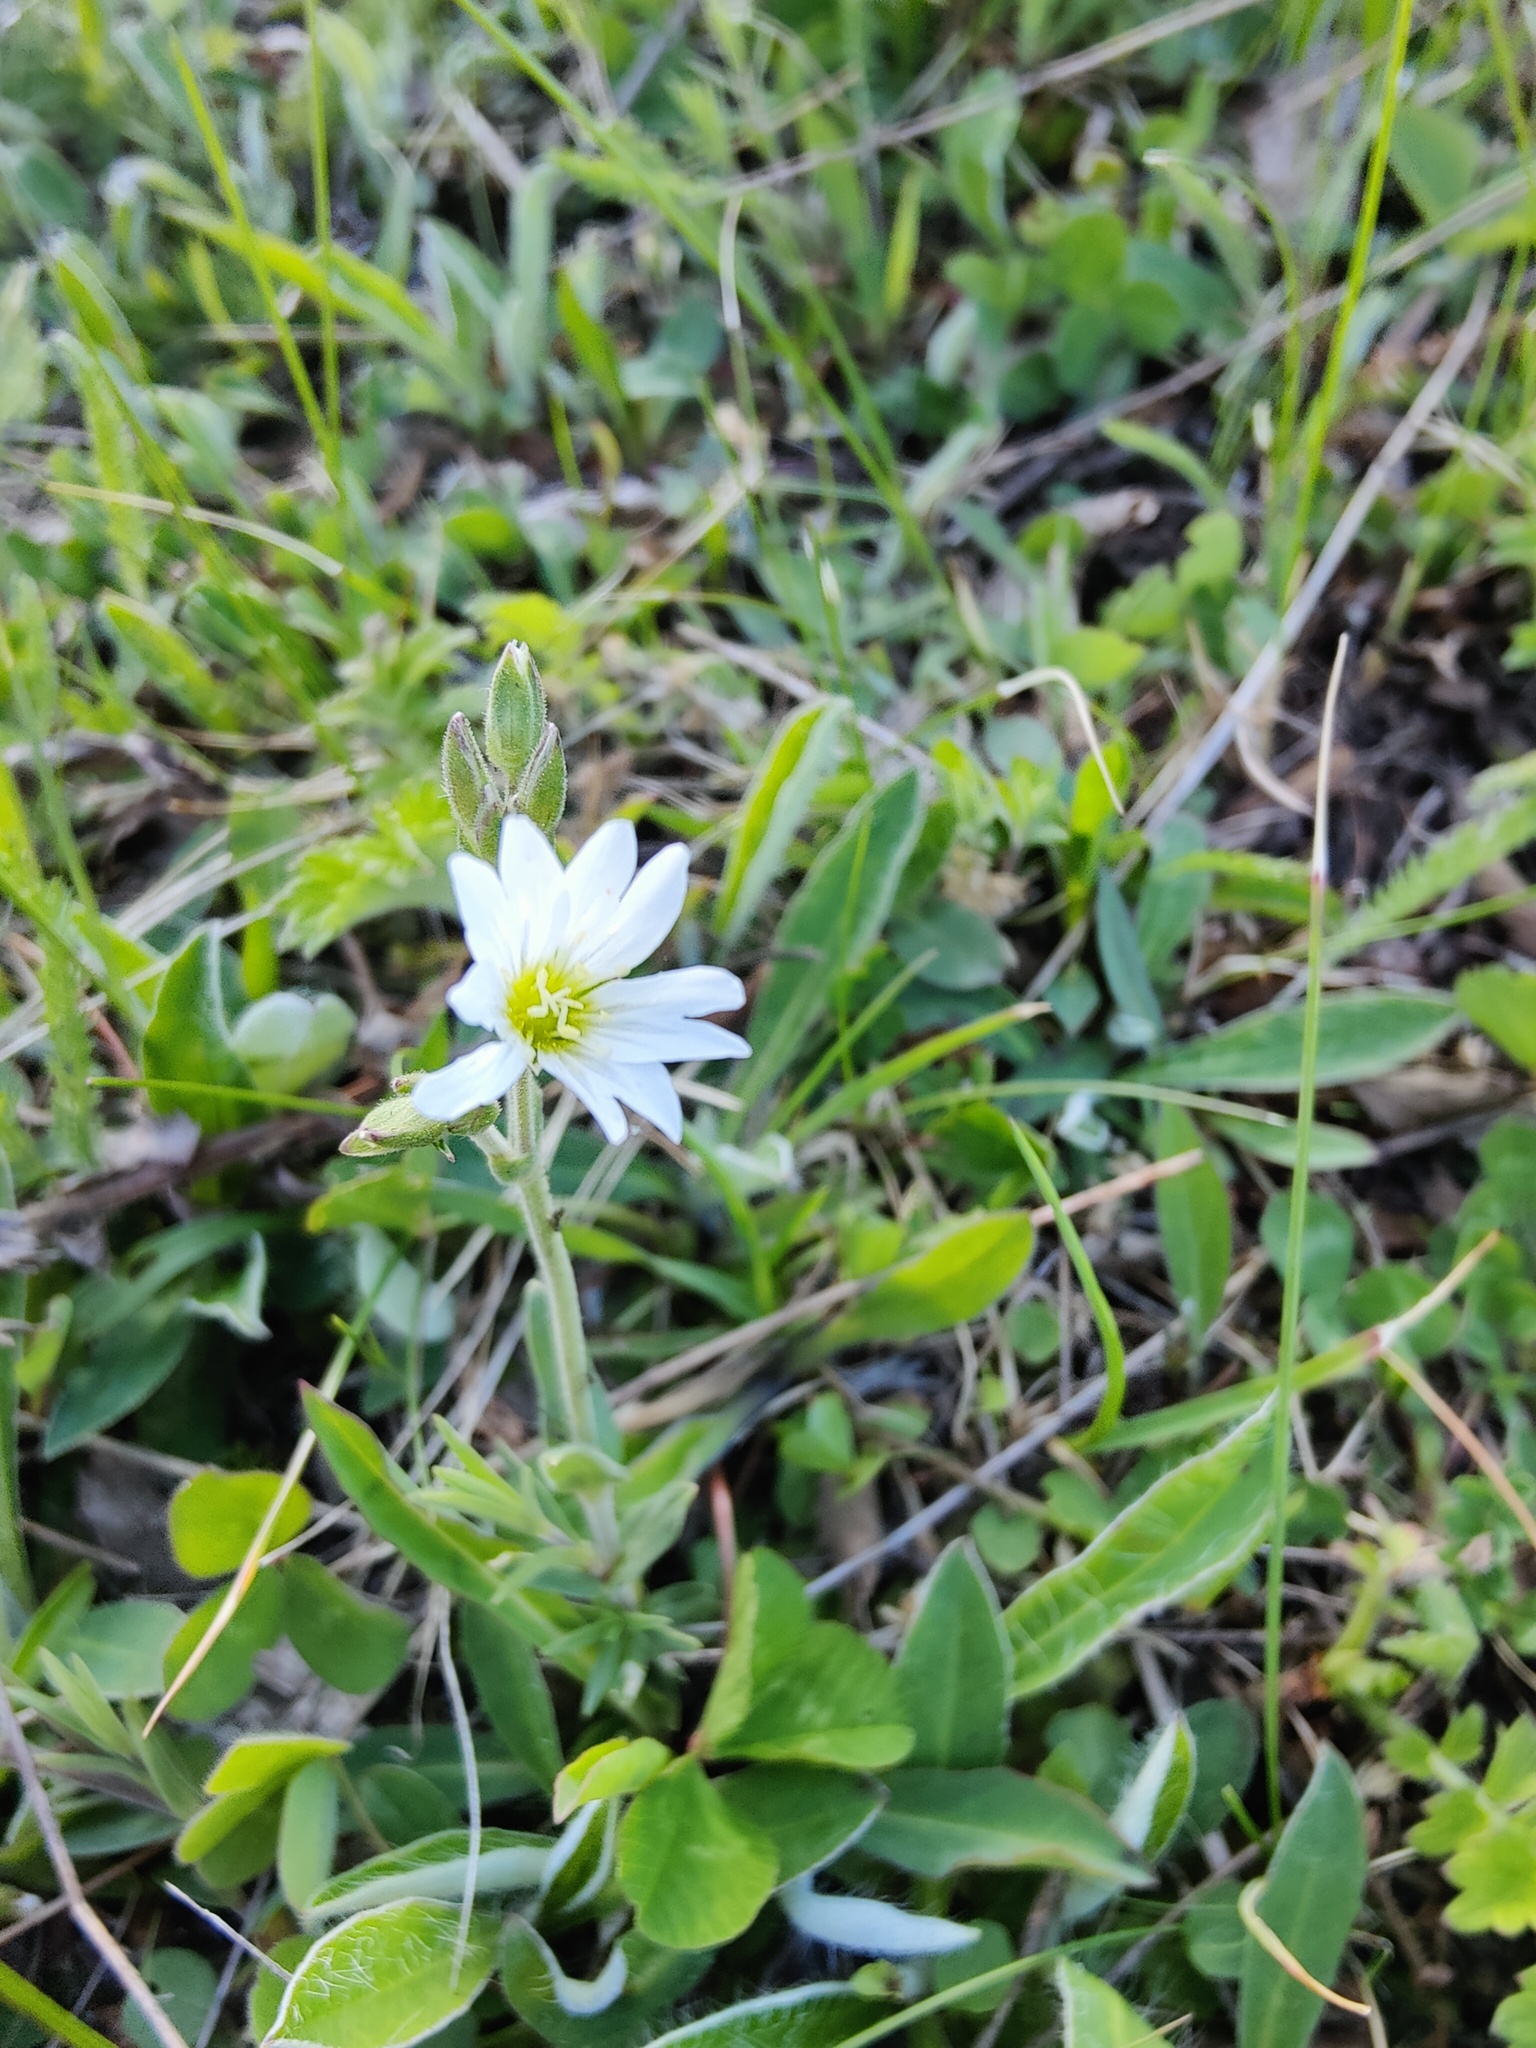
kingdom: Plantae
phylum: Tracheophyta
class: Magnoliopsida
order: Caryophyllales
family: Caryophyllaceae
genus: Cerastium
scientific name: Cerastium arvense
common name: Field mouse-ear
